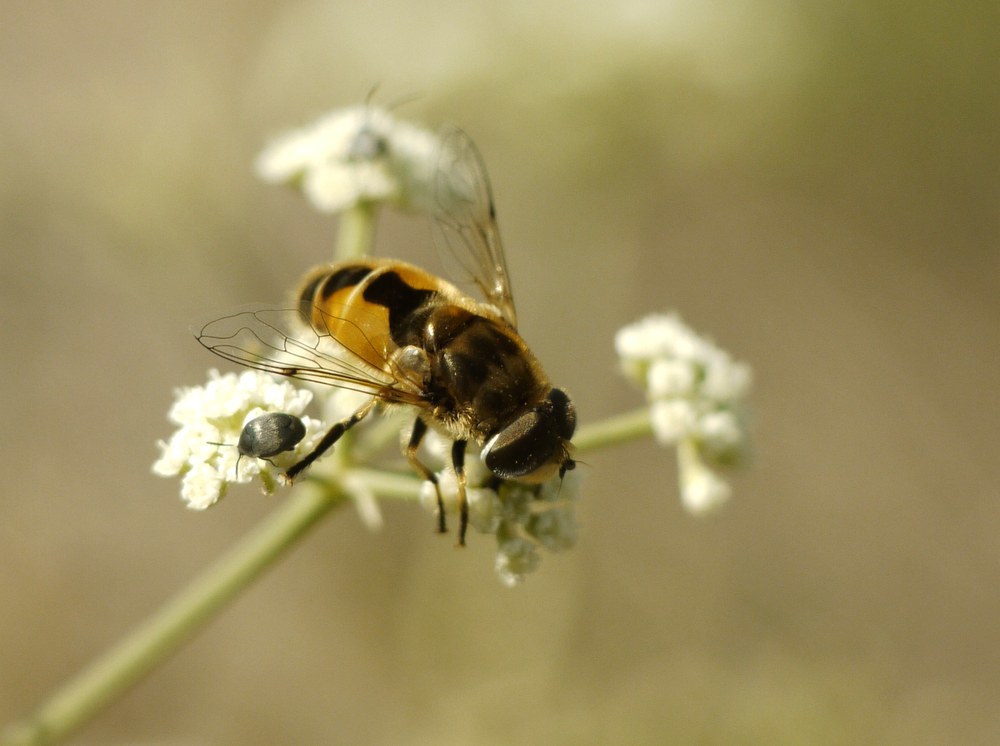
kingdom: Animalia
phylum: Arthropoda
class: Insecta
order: Diptera
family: Syrphidae
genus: Eristalis
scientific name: Eristalis arbustorum
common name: Hover fly
